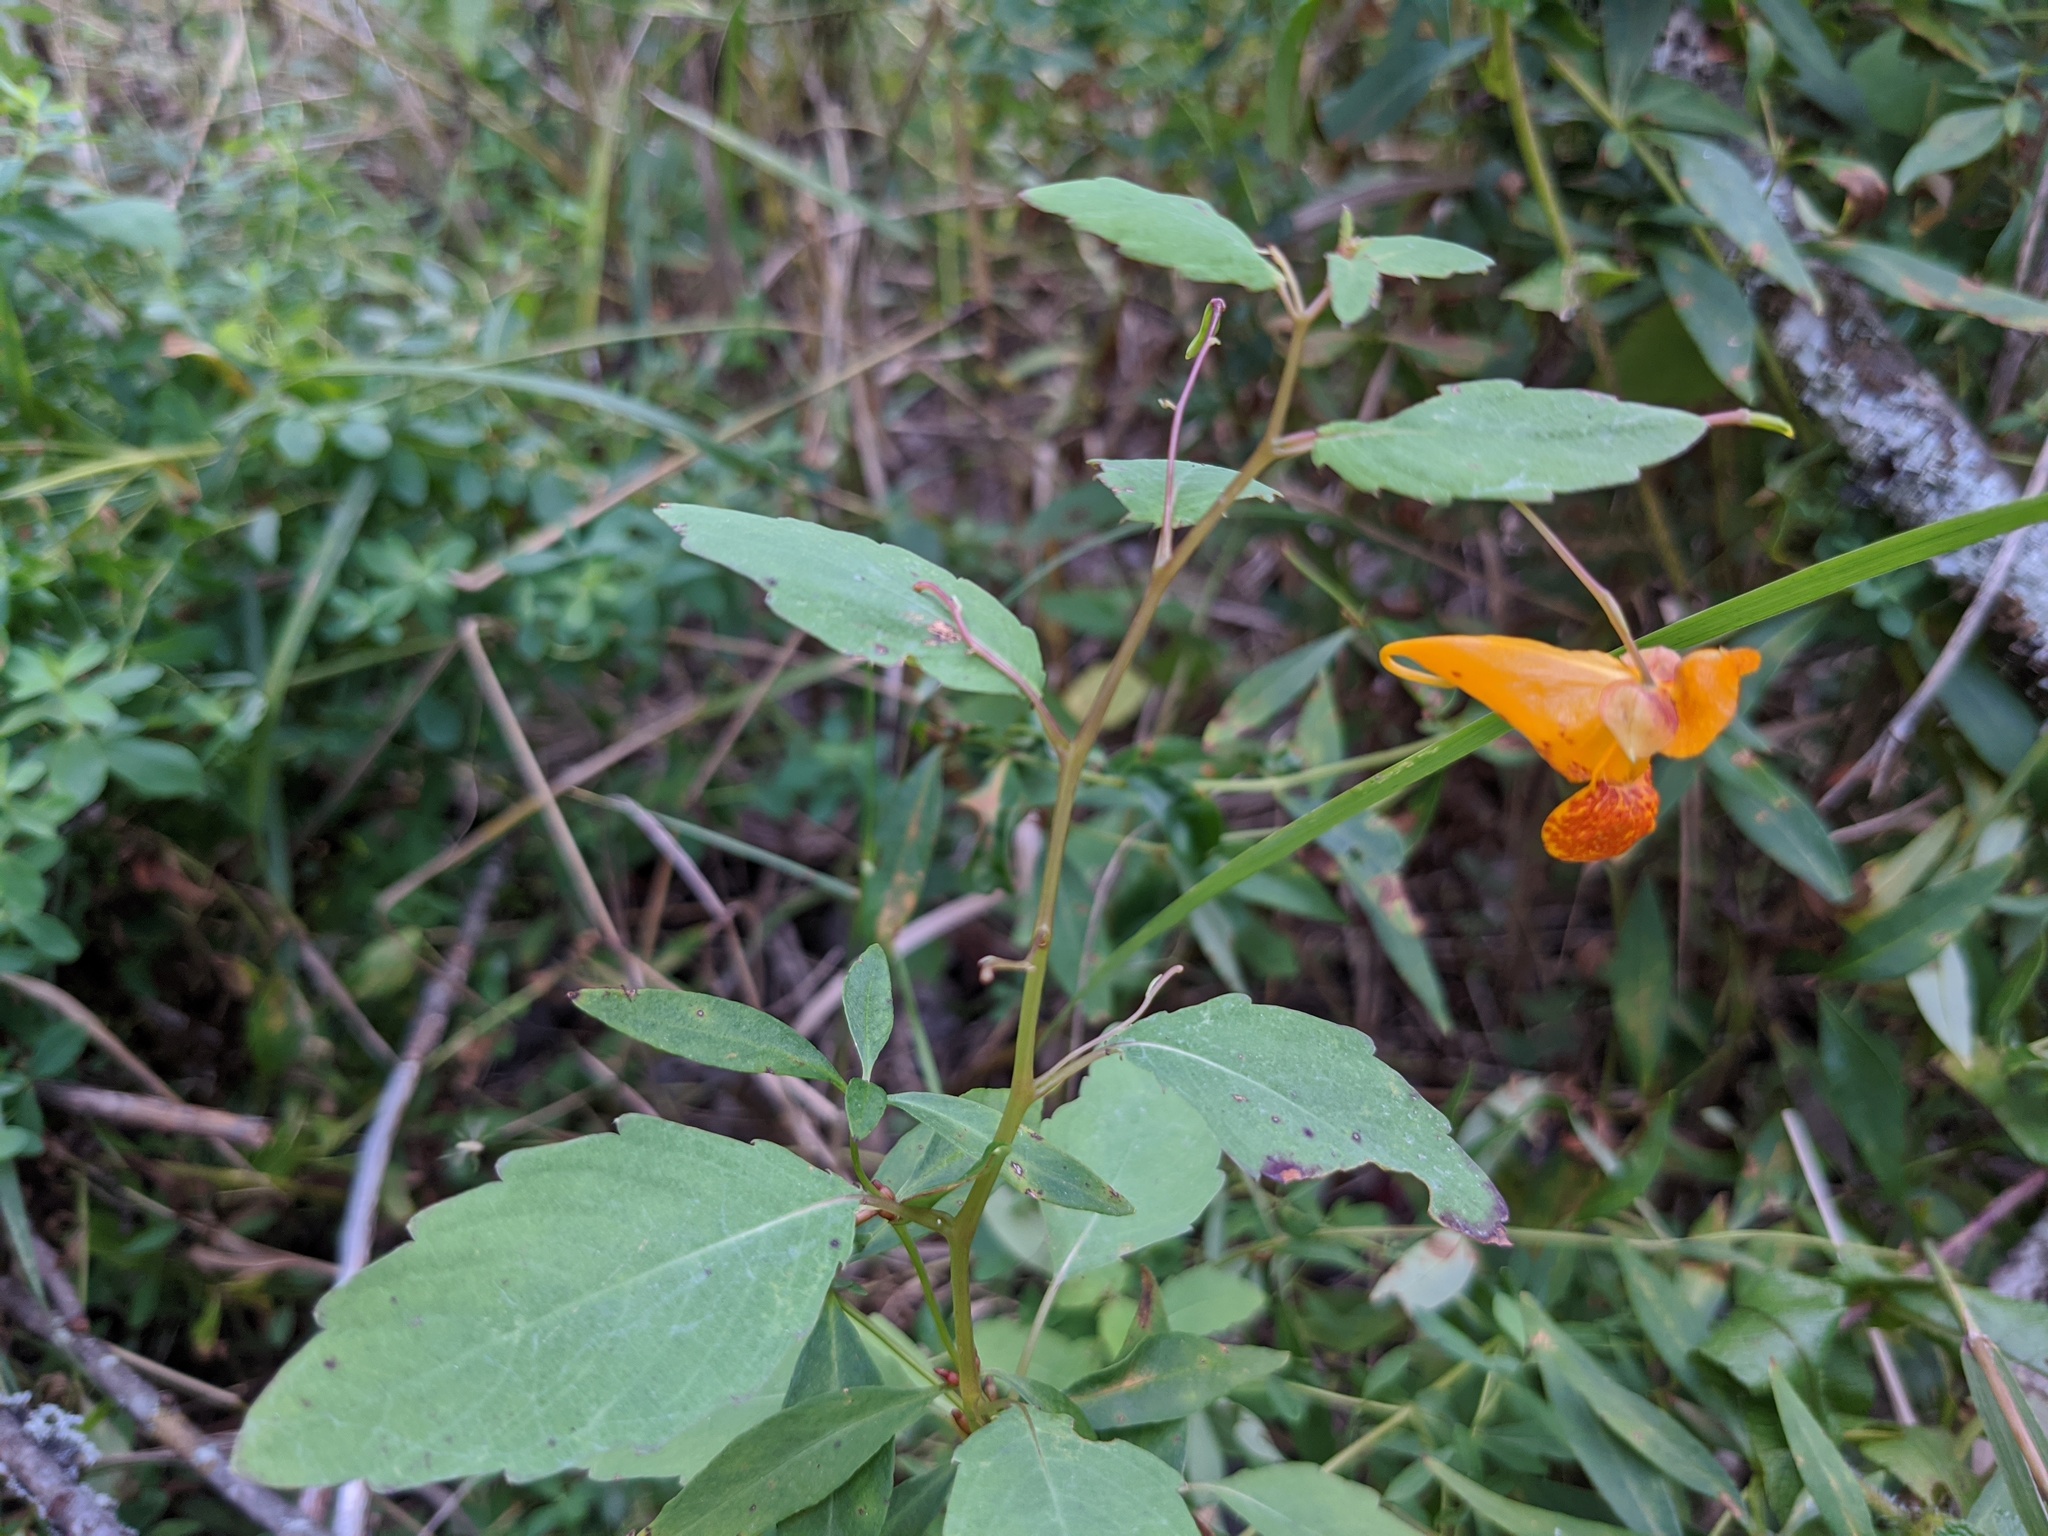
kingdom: Plantae
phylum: Tracheophyta
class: Magnoliopsida
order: Ericales
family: Balsaminaceae
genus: Impatiens
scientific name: Impatiens capensis
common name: Orange balsam
